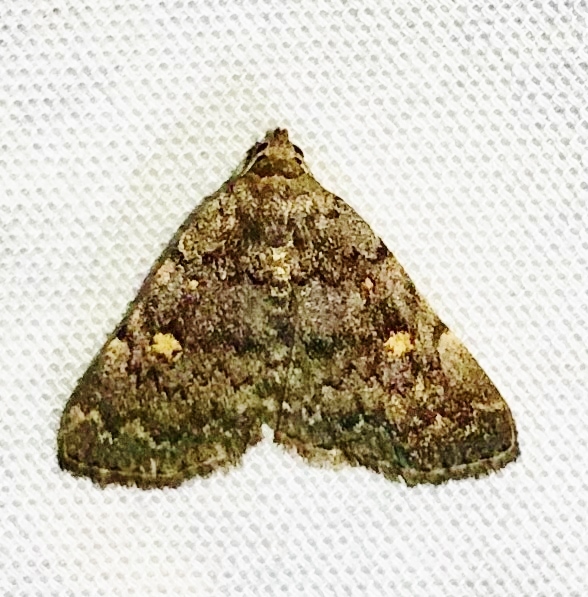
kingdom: Animalia
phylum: Arthropoda
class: Insecta
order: Lepidoptera
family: Erebidae
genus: Idia
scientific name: Idia aemula
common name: Common idia moth
